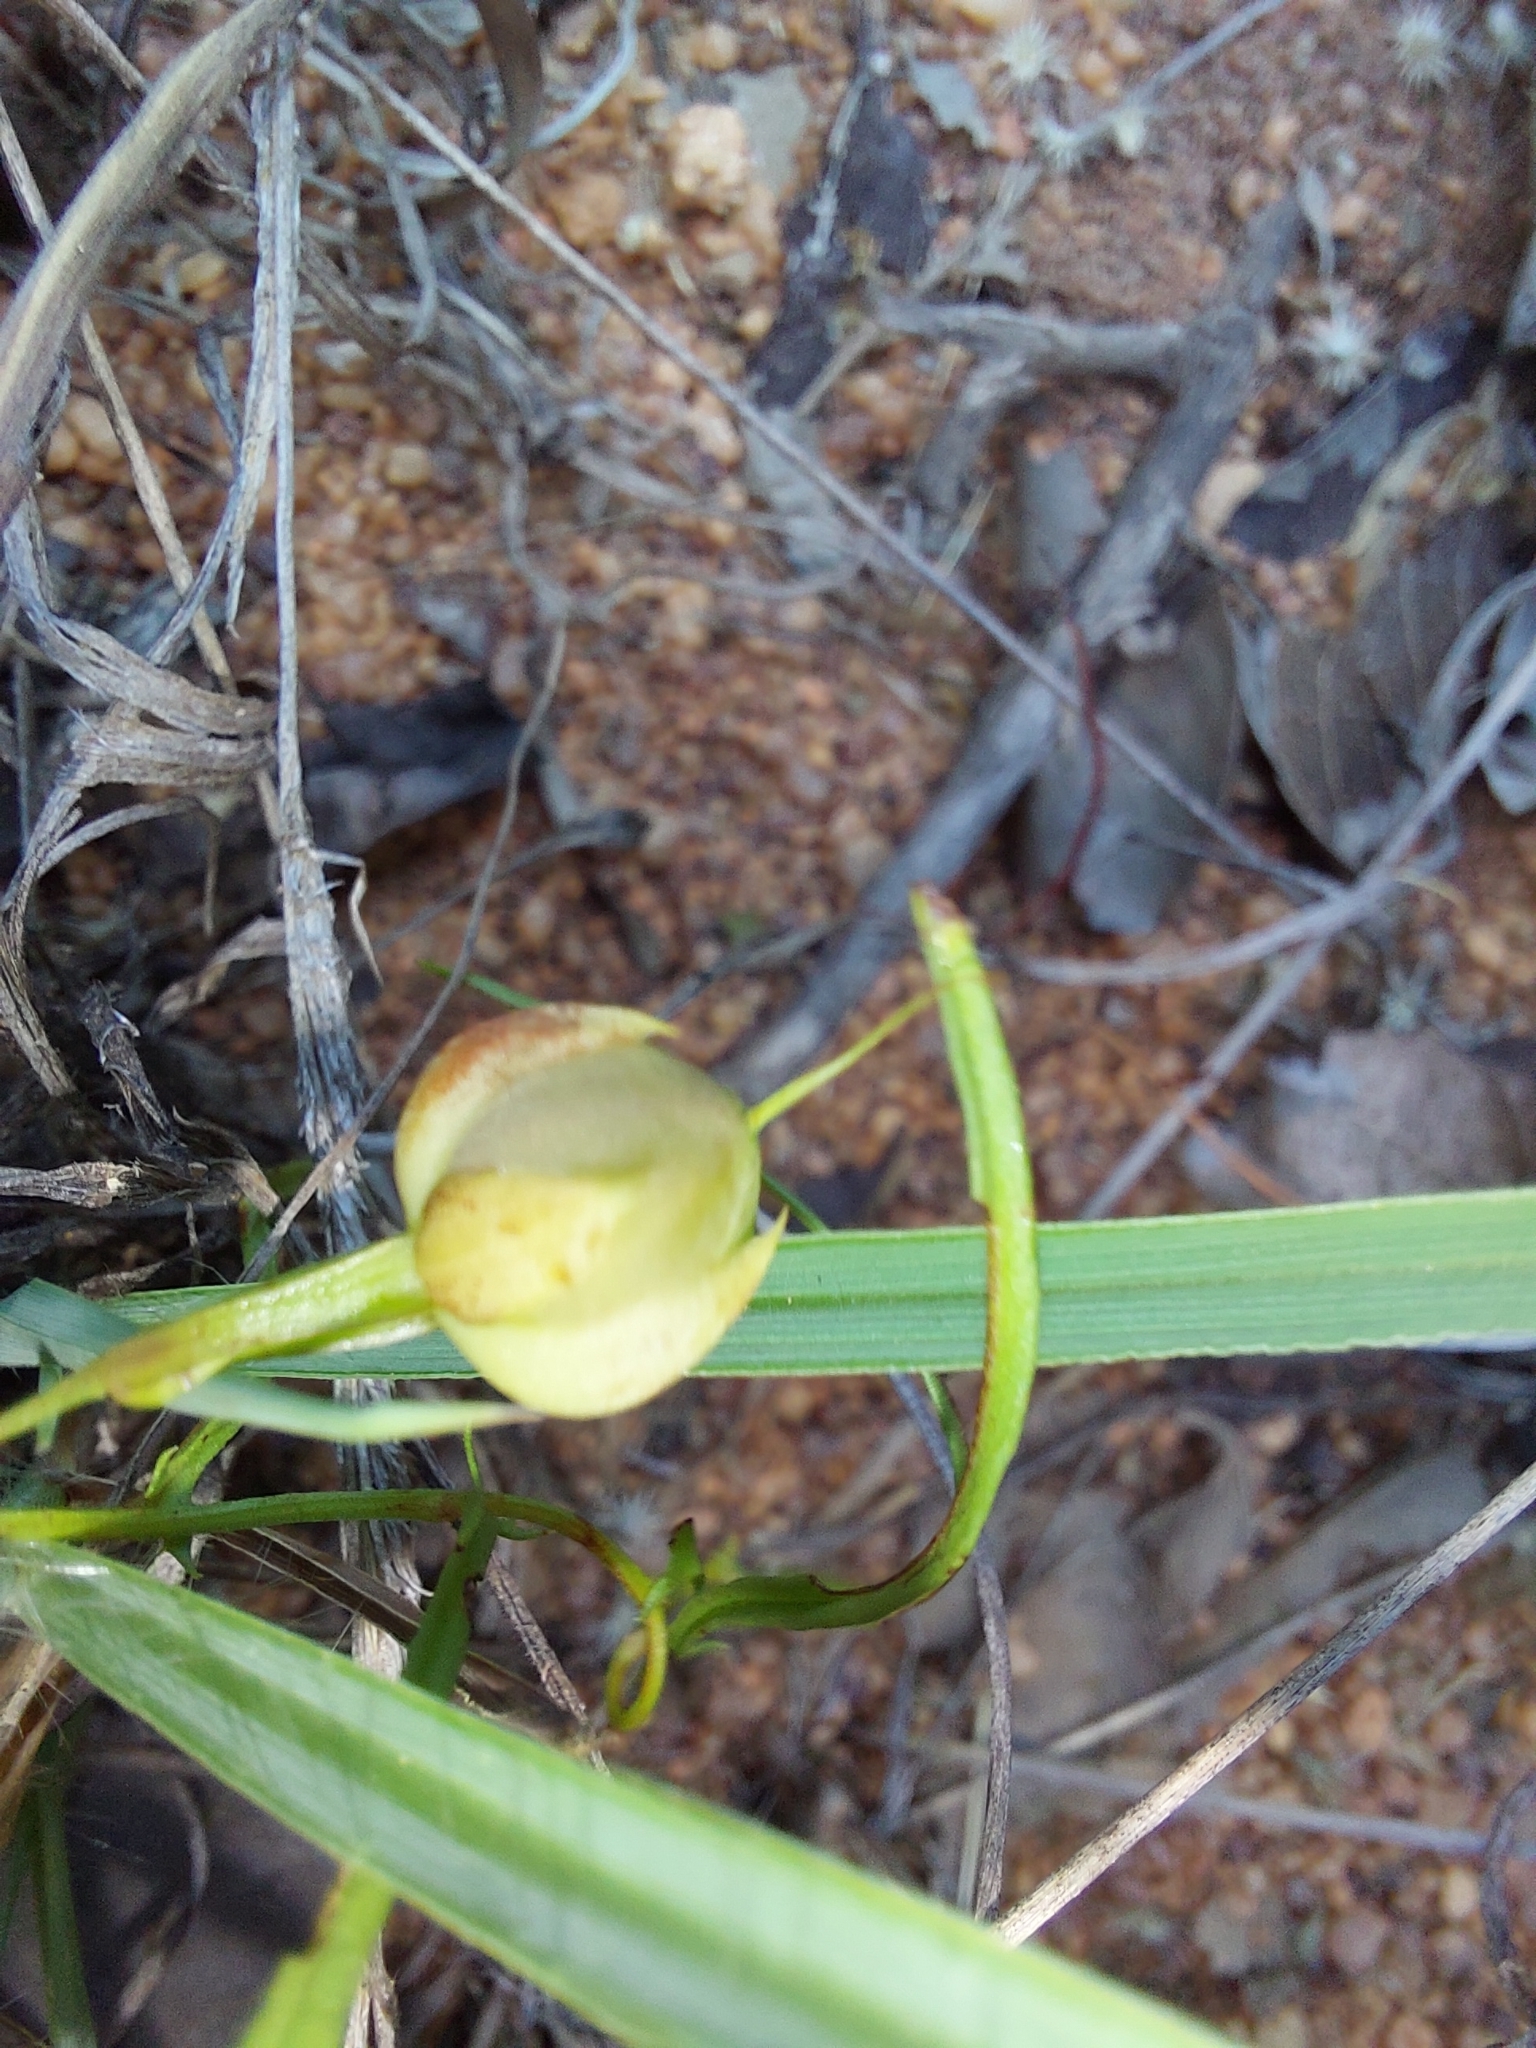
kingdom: Plantae
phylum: Tracheophyta
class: Magnoliopsida
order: Solanales
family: Convolvulaceae
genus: Xenostegia
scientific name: Xenostegia tridentata
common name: African morningvine
